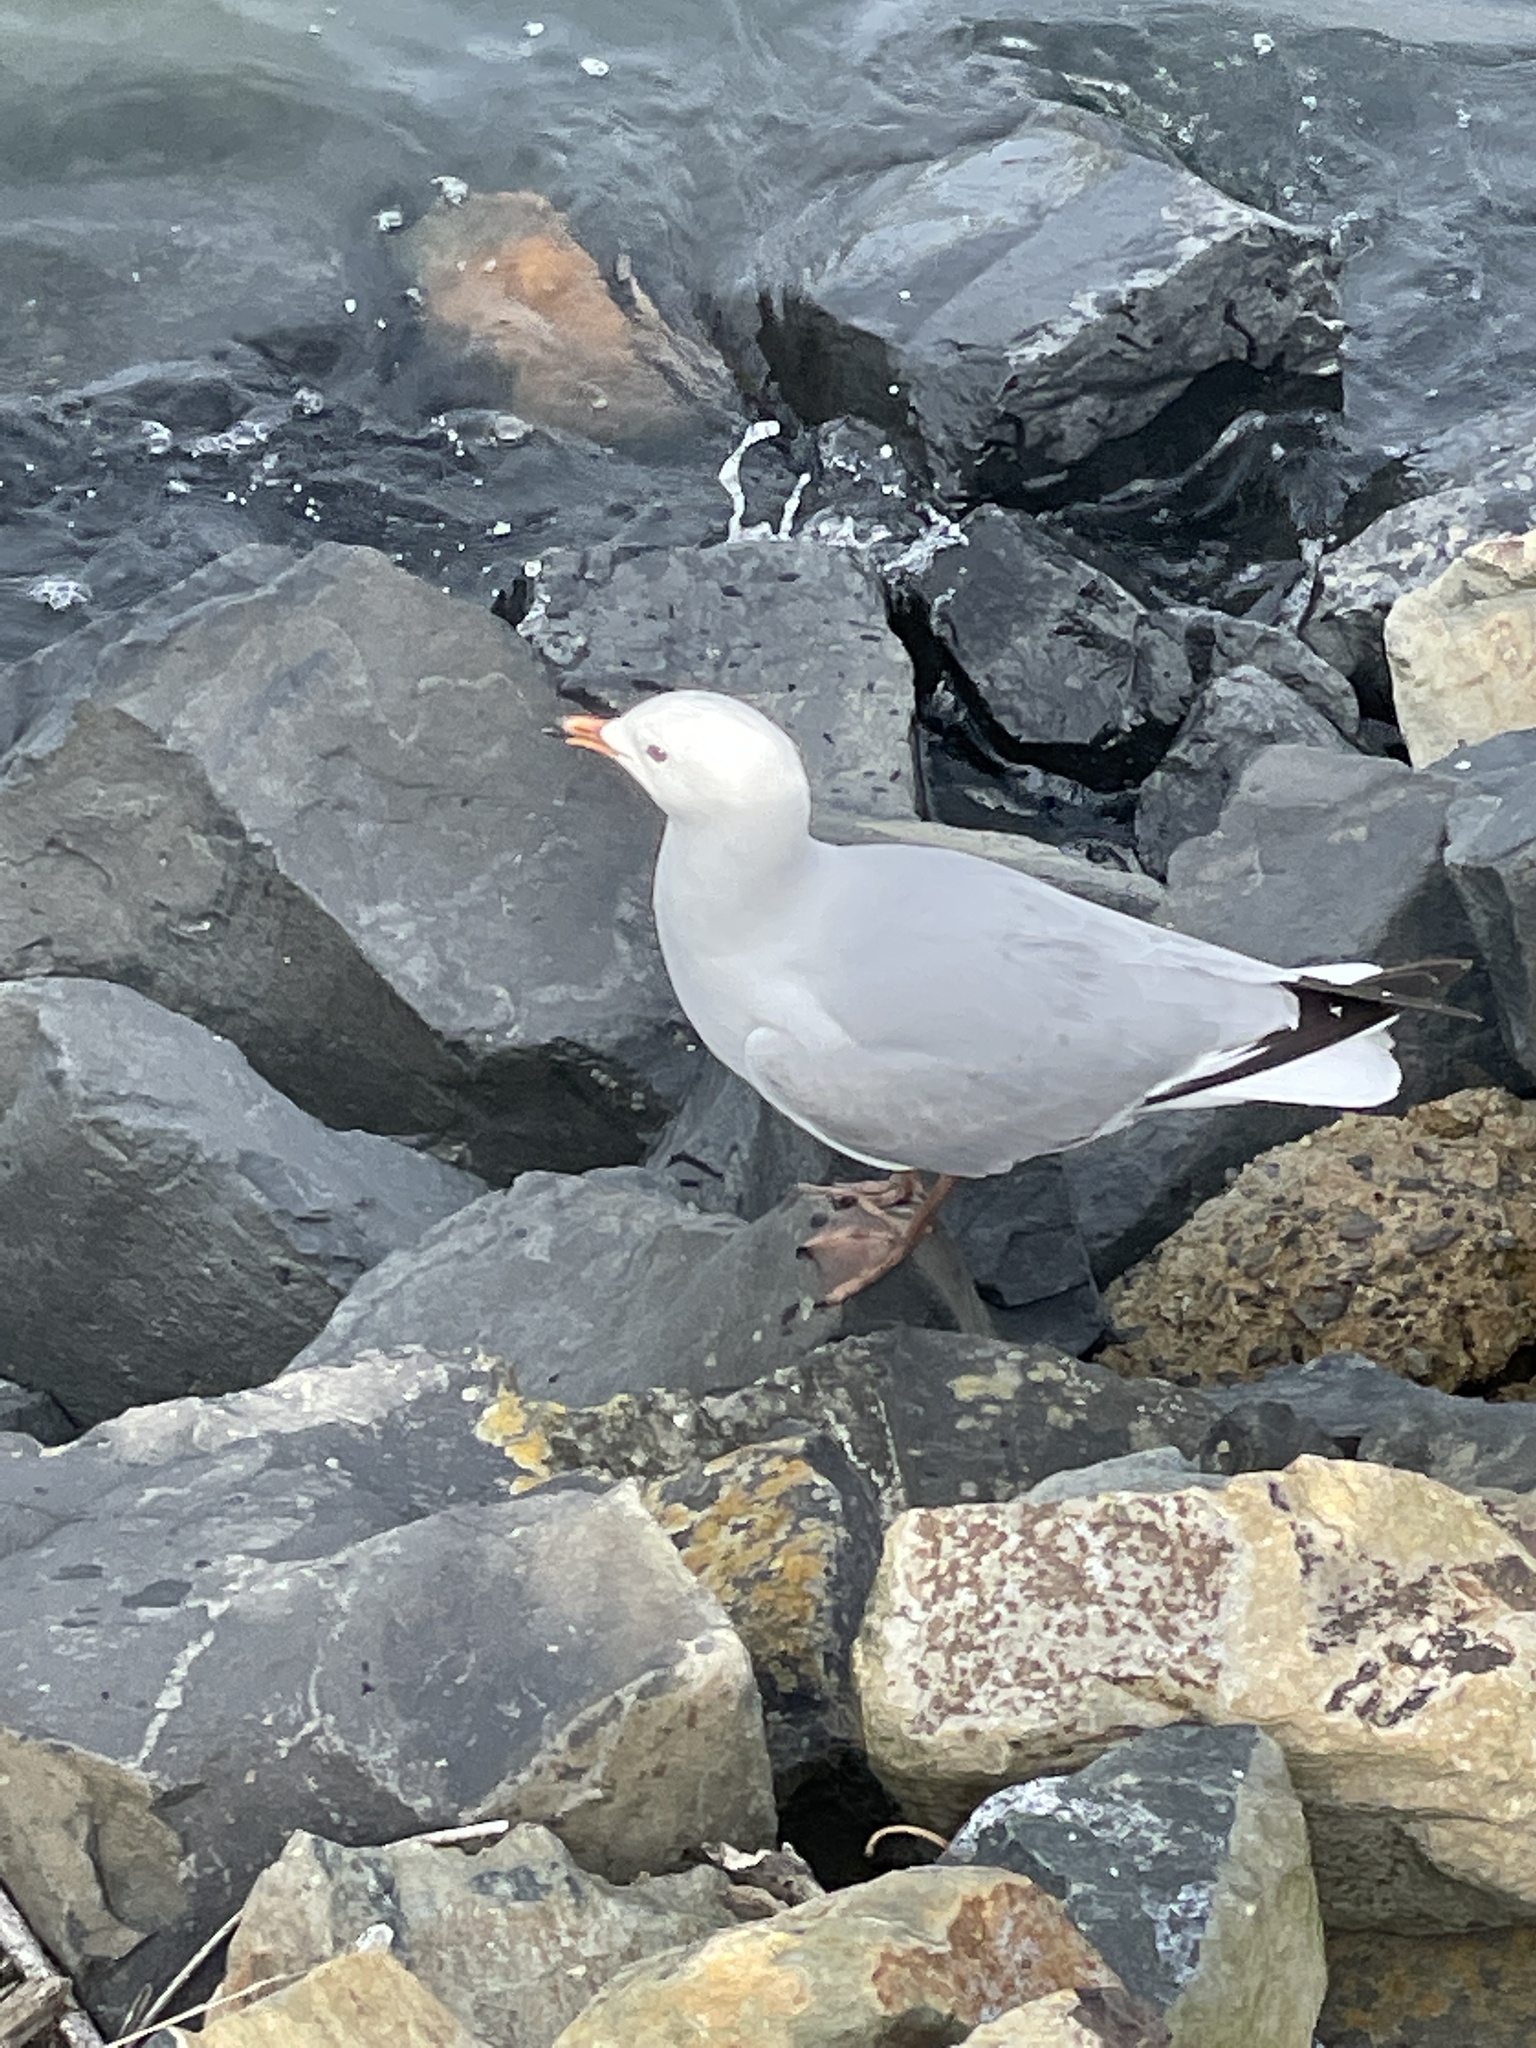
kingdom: Animalia
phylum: Chordata
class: Aves
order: Charadriiformes
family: Laridae
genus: Chroicocephalus
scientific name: Chroicocephalus novaehollandiae
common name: Silver gull
